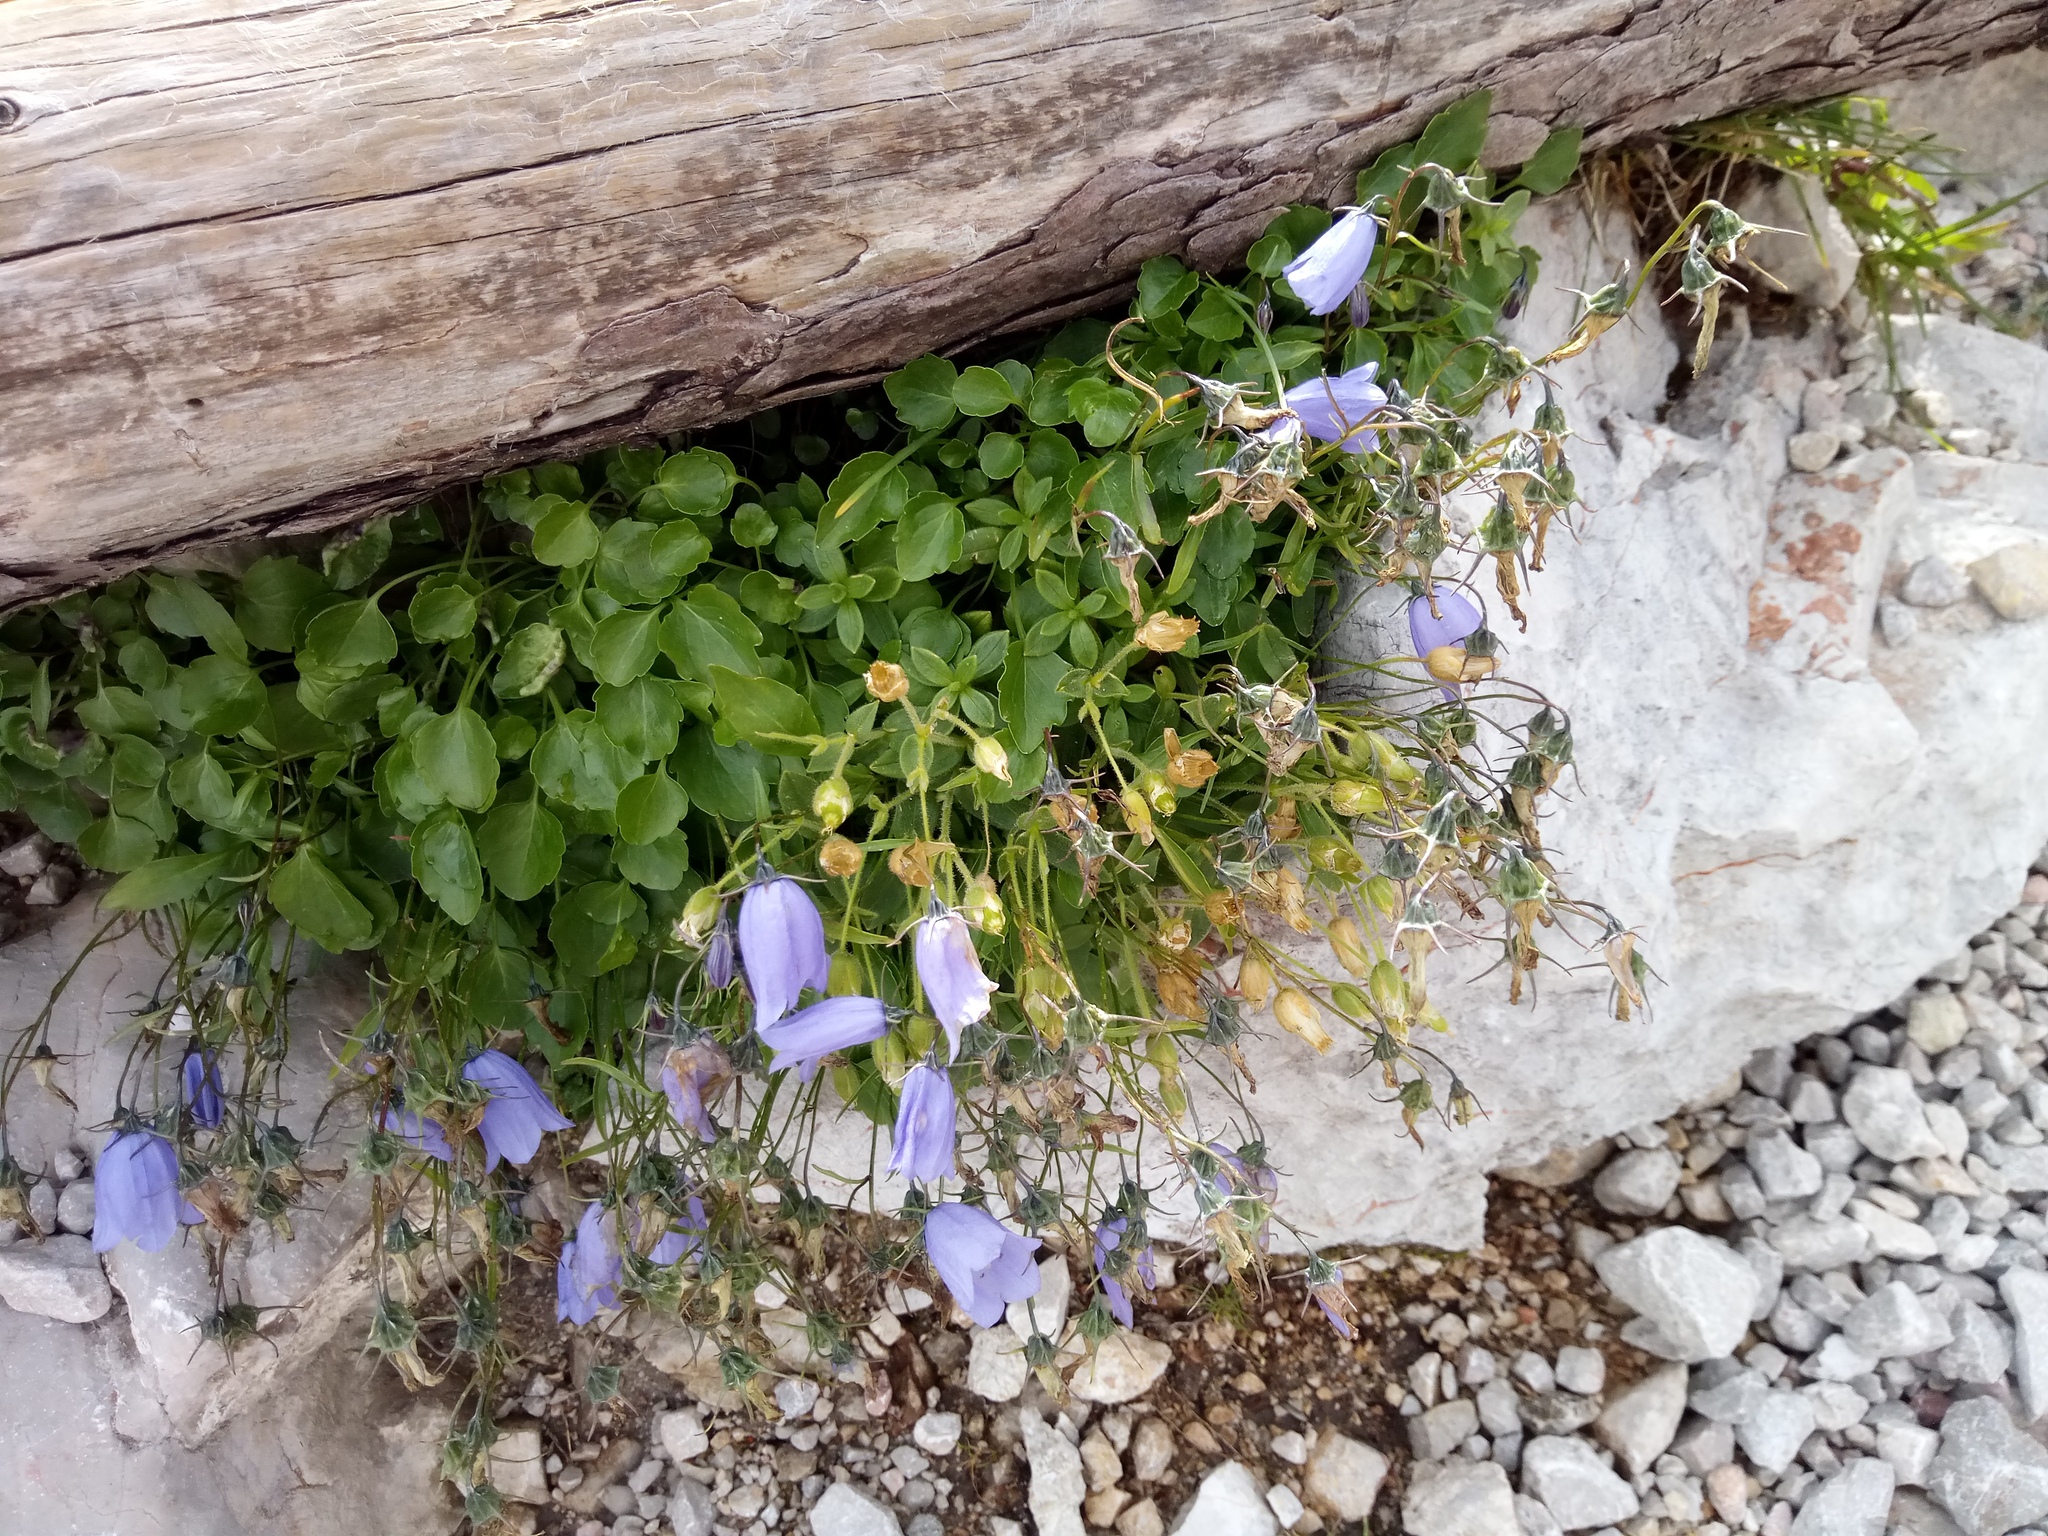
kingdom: Plantae
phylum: Tracheophyta
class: Magnoliopsida
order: Asterales
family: Campanulaceae
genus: Campanula
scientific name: Campanula cochleariifolia
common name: Fairies'-thimbles
